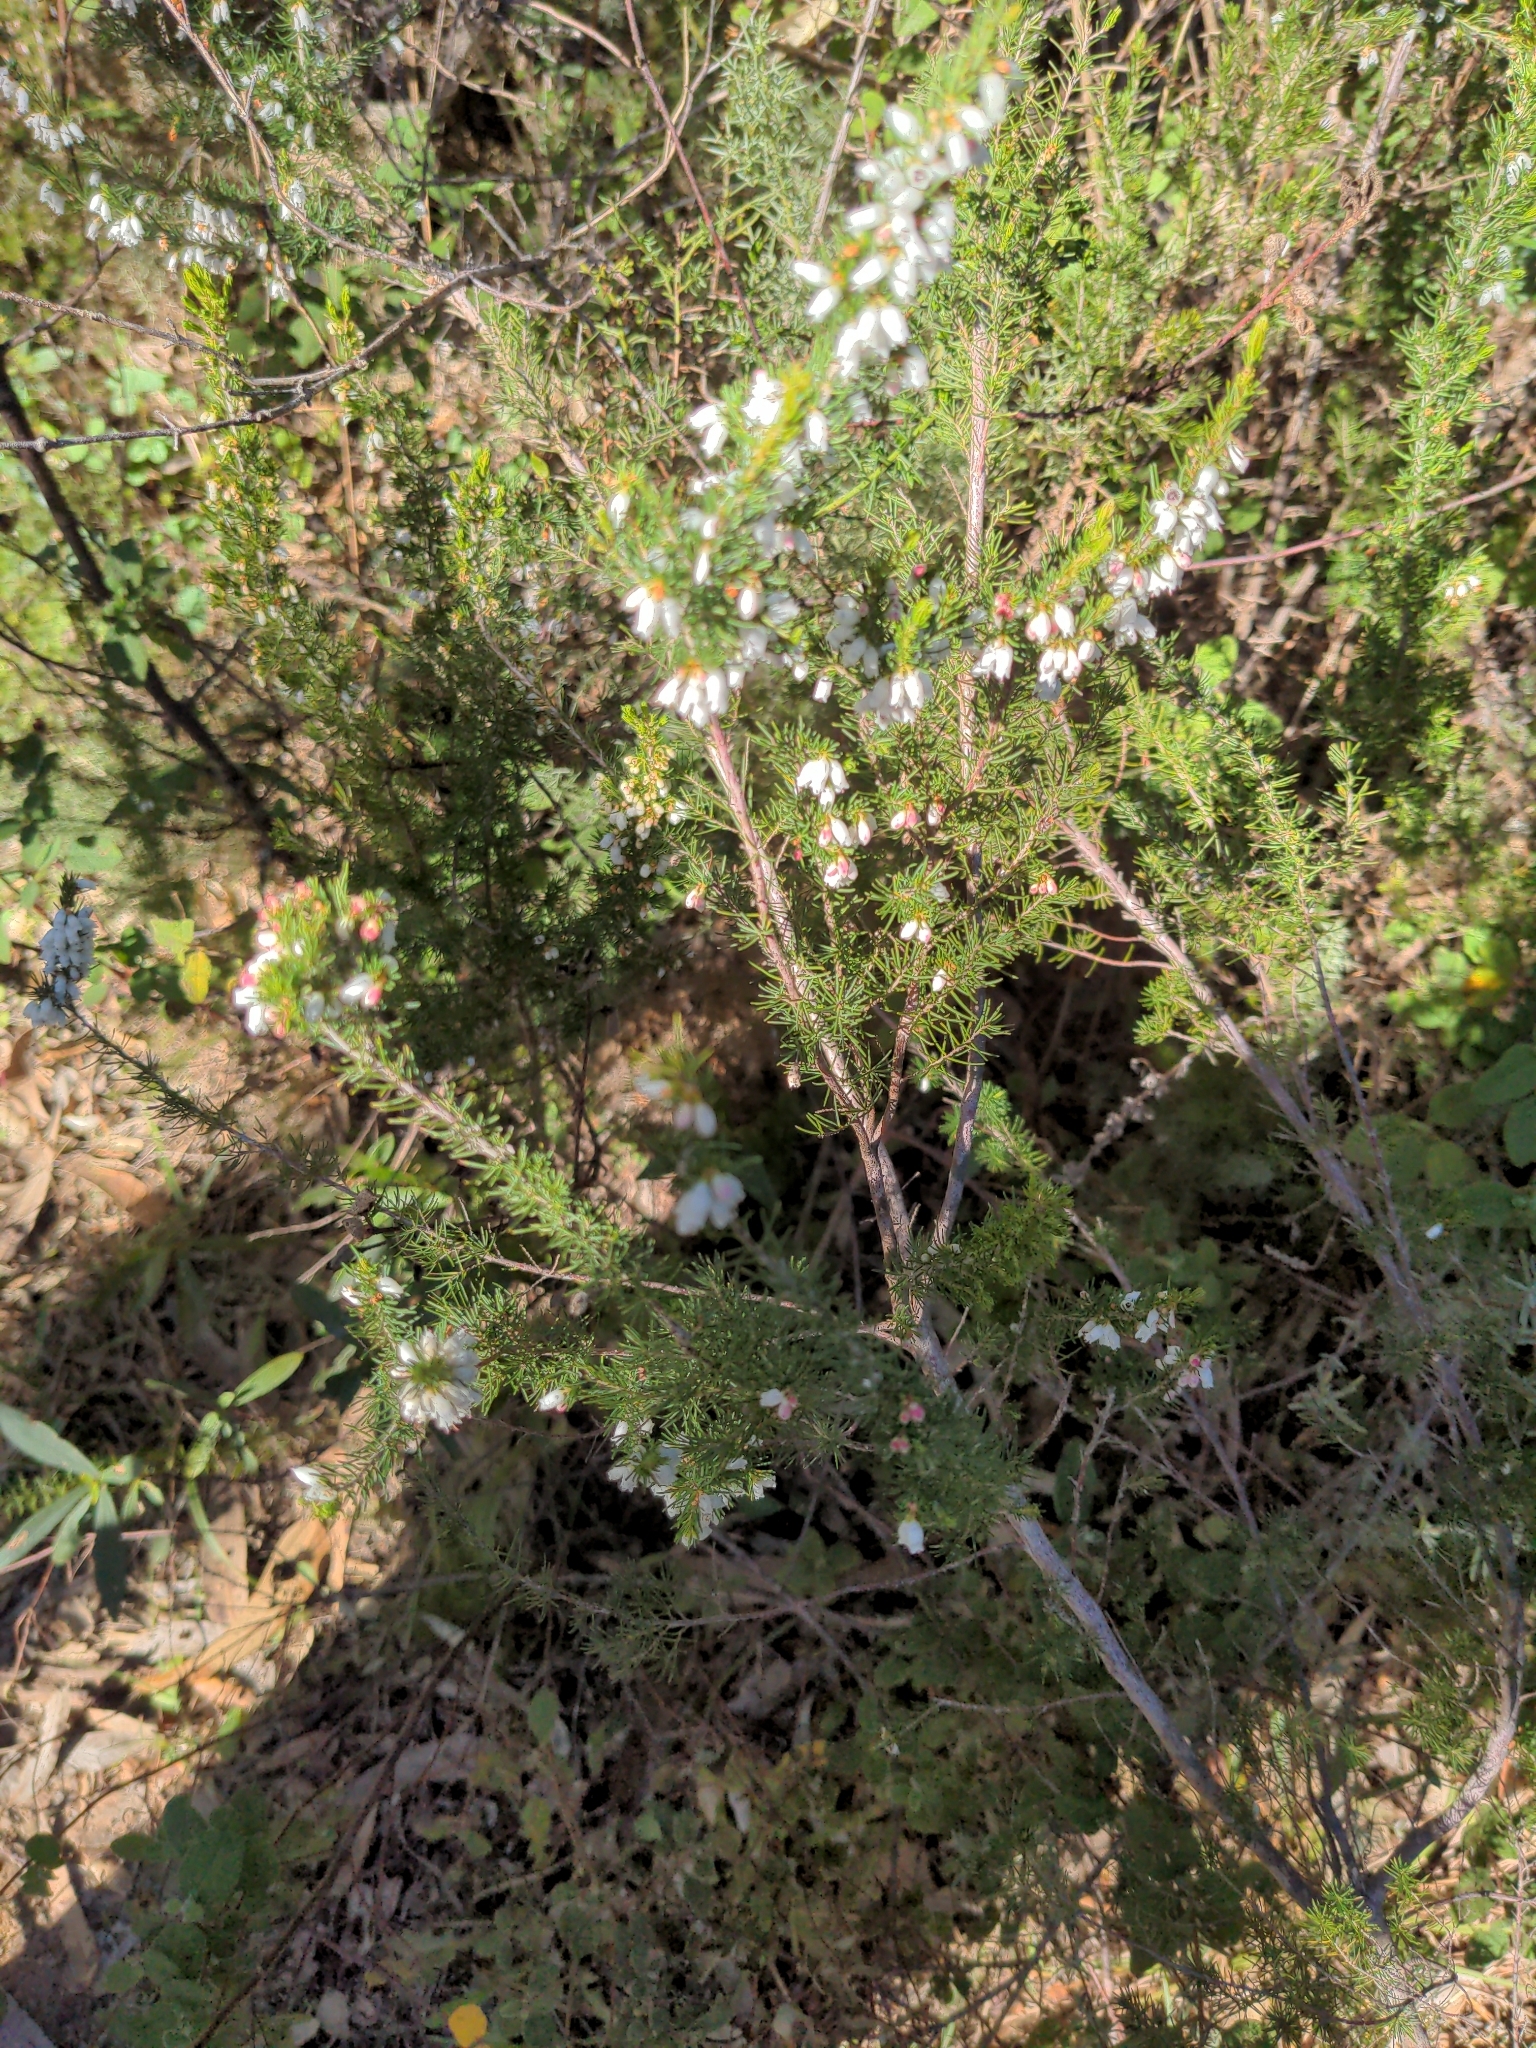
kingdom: Plantae
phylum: Tracheophyta
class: Magnoliopsida
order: Ericales
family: Ericaceae
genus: Erica
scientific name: Erica lusitanica
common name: Spanish heath
